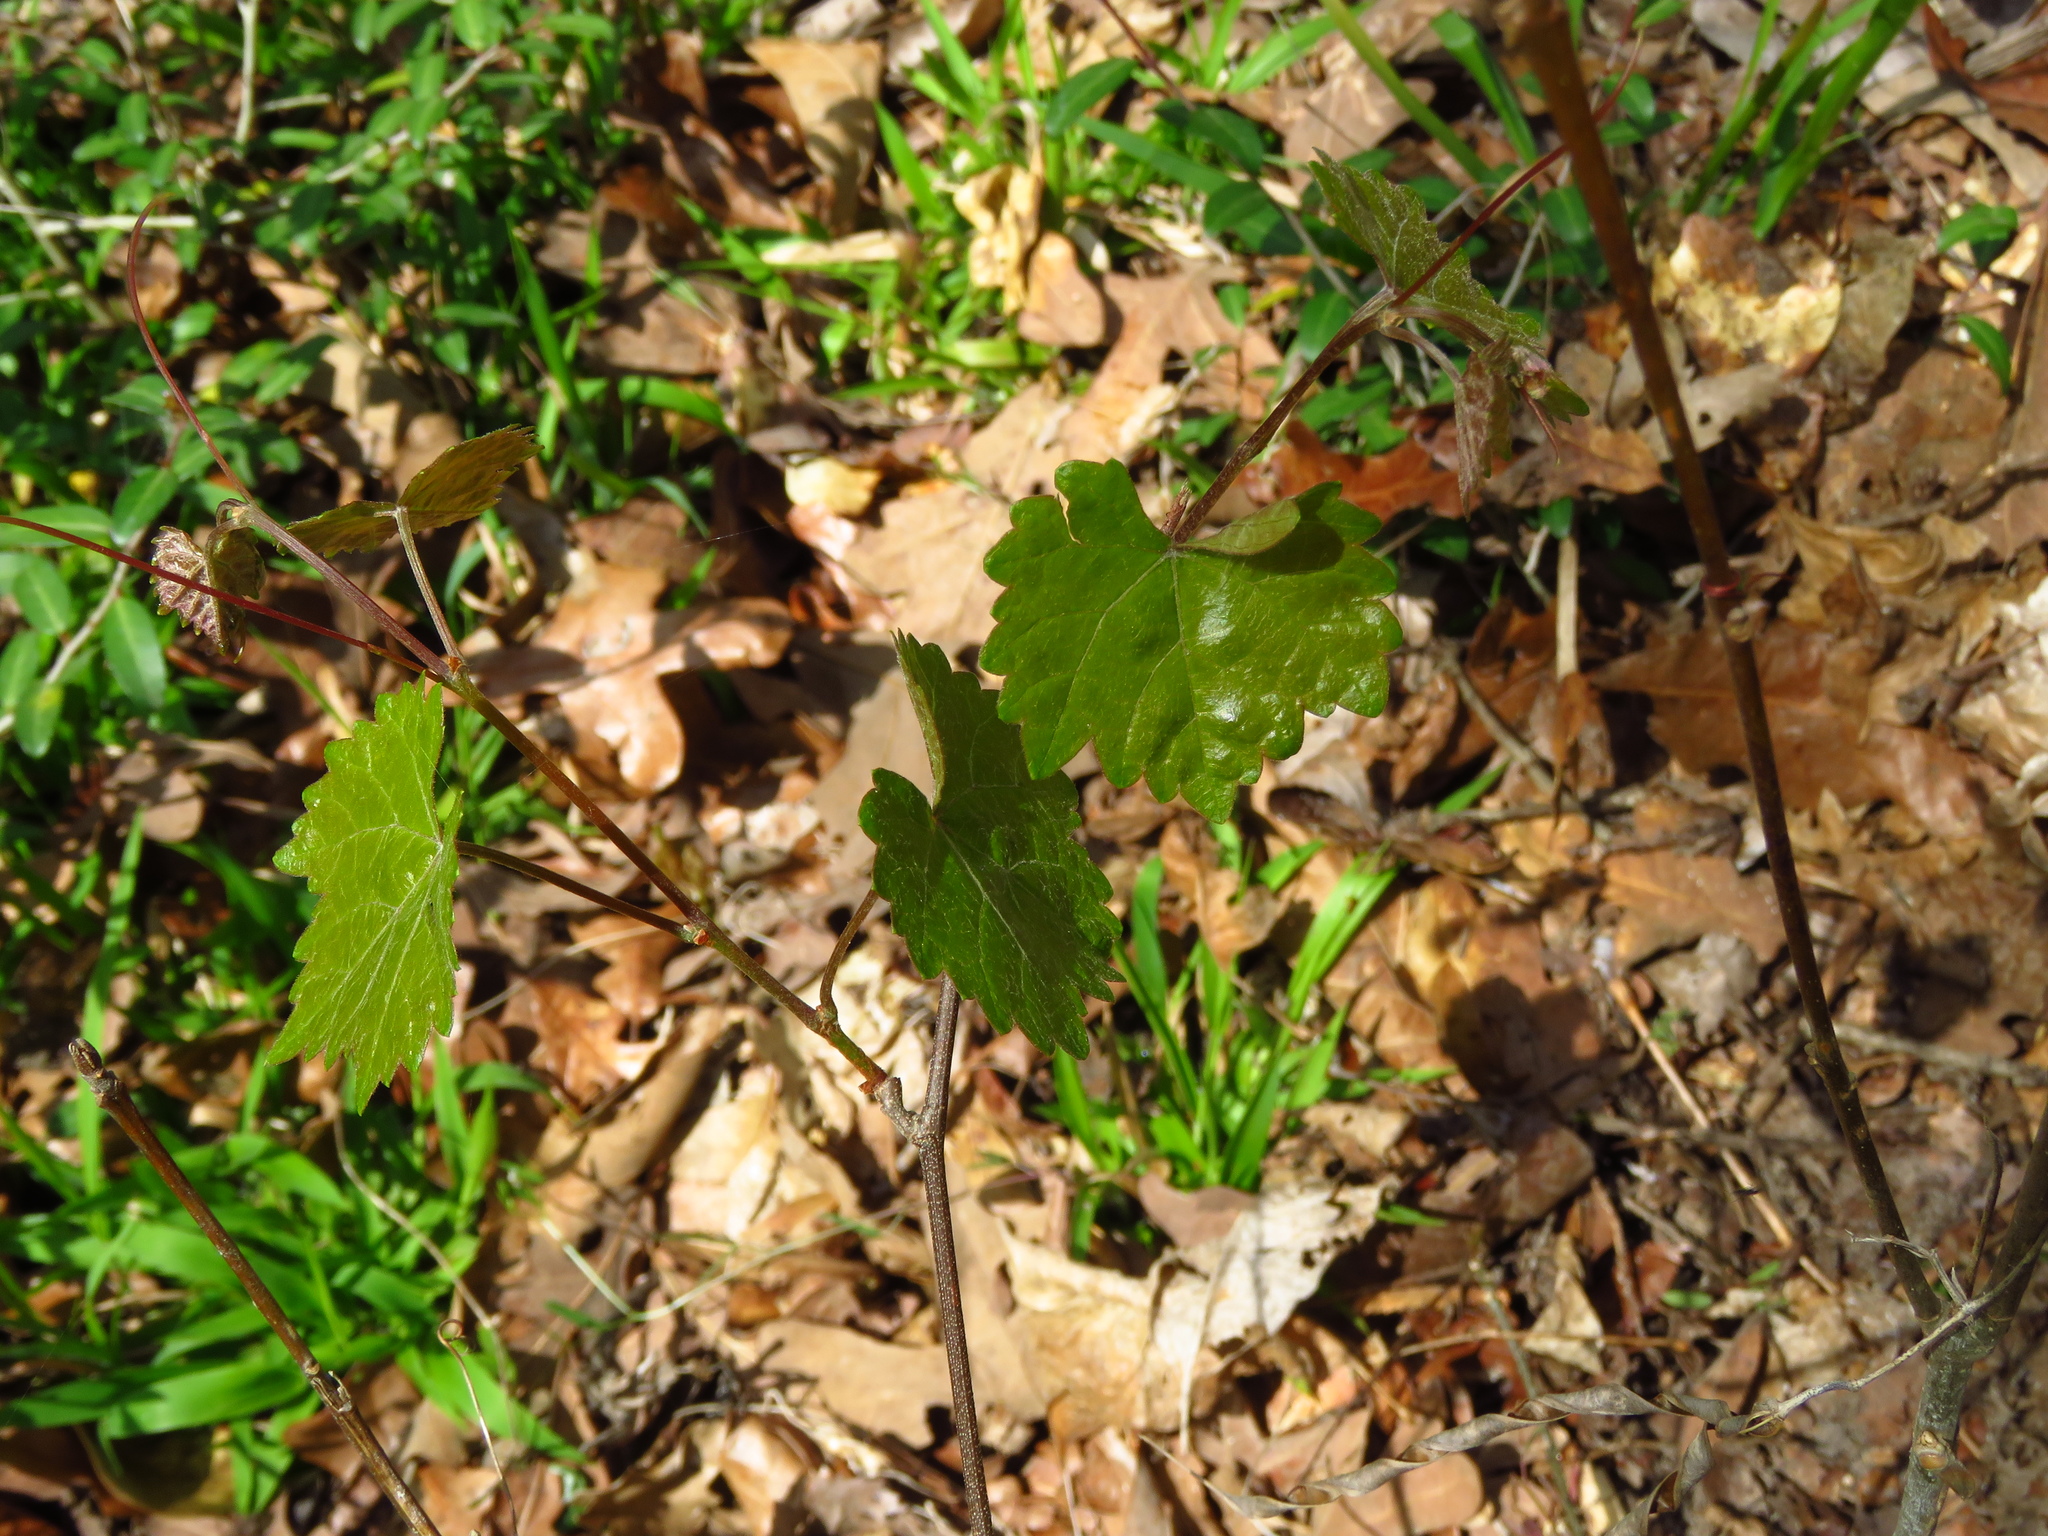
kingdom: Plantae
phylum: Tracheophyta
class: Magnoliopsida
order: Vitales
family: Vitaceae
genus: Vitis
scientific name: Vitis rotundifolia
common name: Muscadine grape
